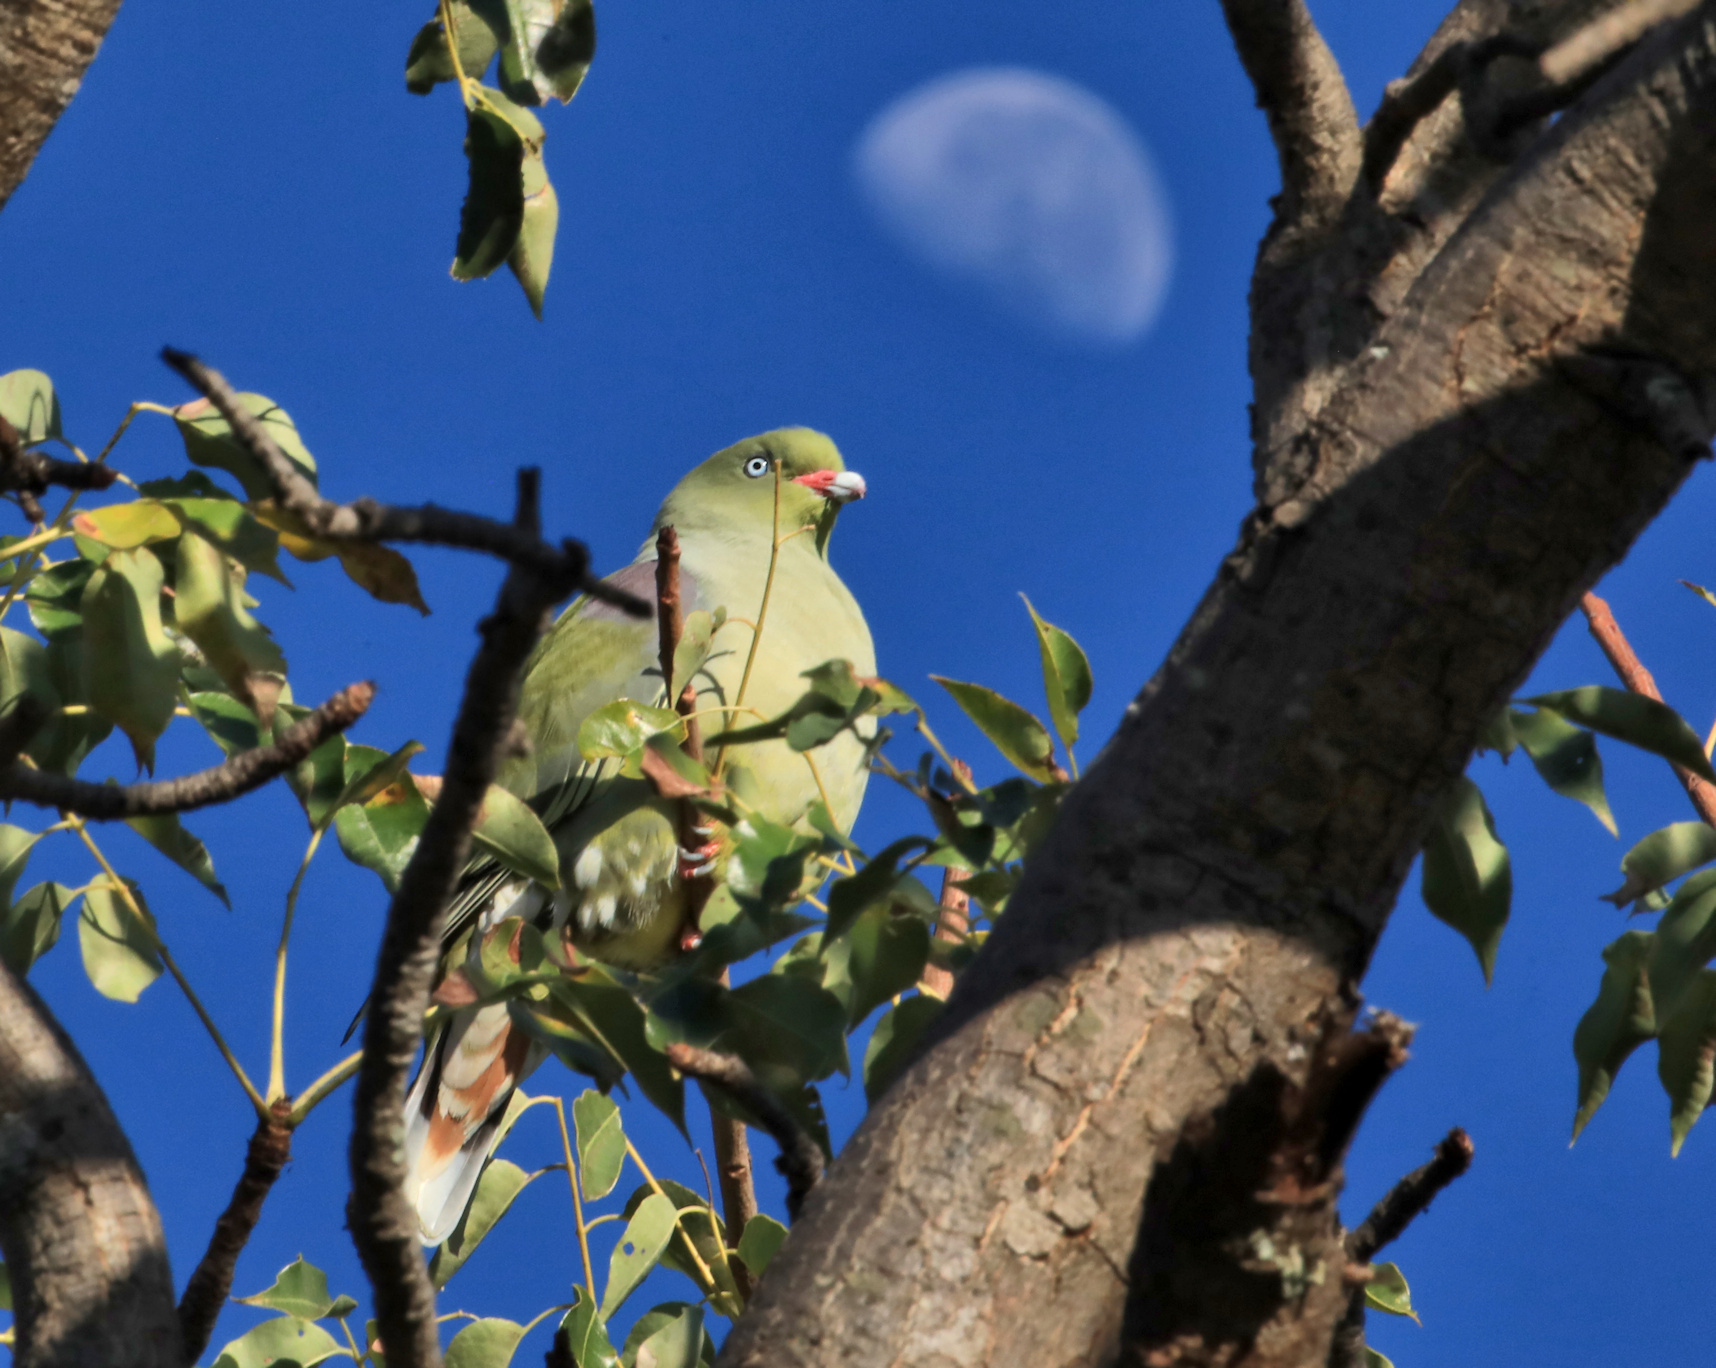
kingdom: Animalia
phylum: Chordata
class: Aves
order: Columbiformes
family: Columbidae
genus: Treron
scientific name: Treron calvus
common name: African green pigeon
